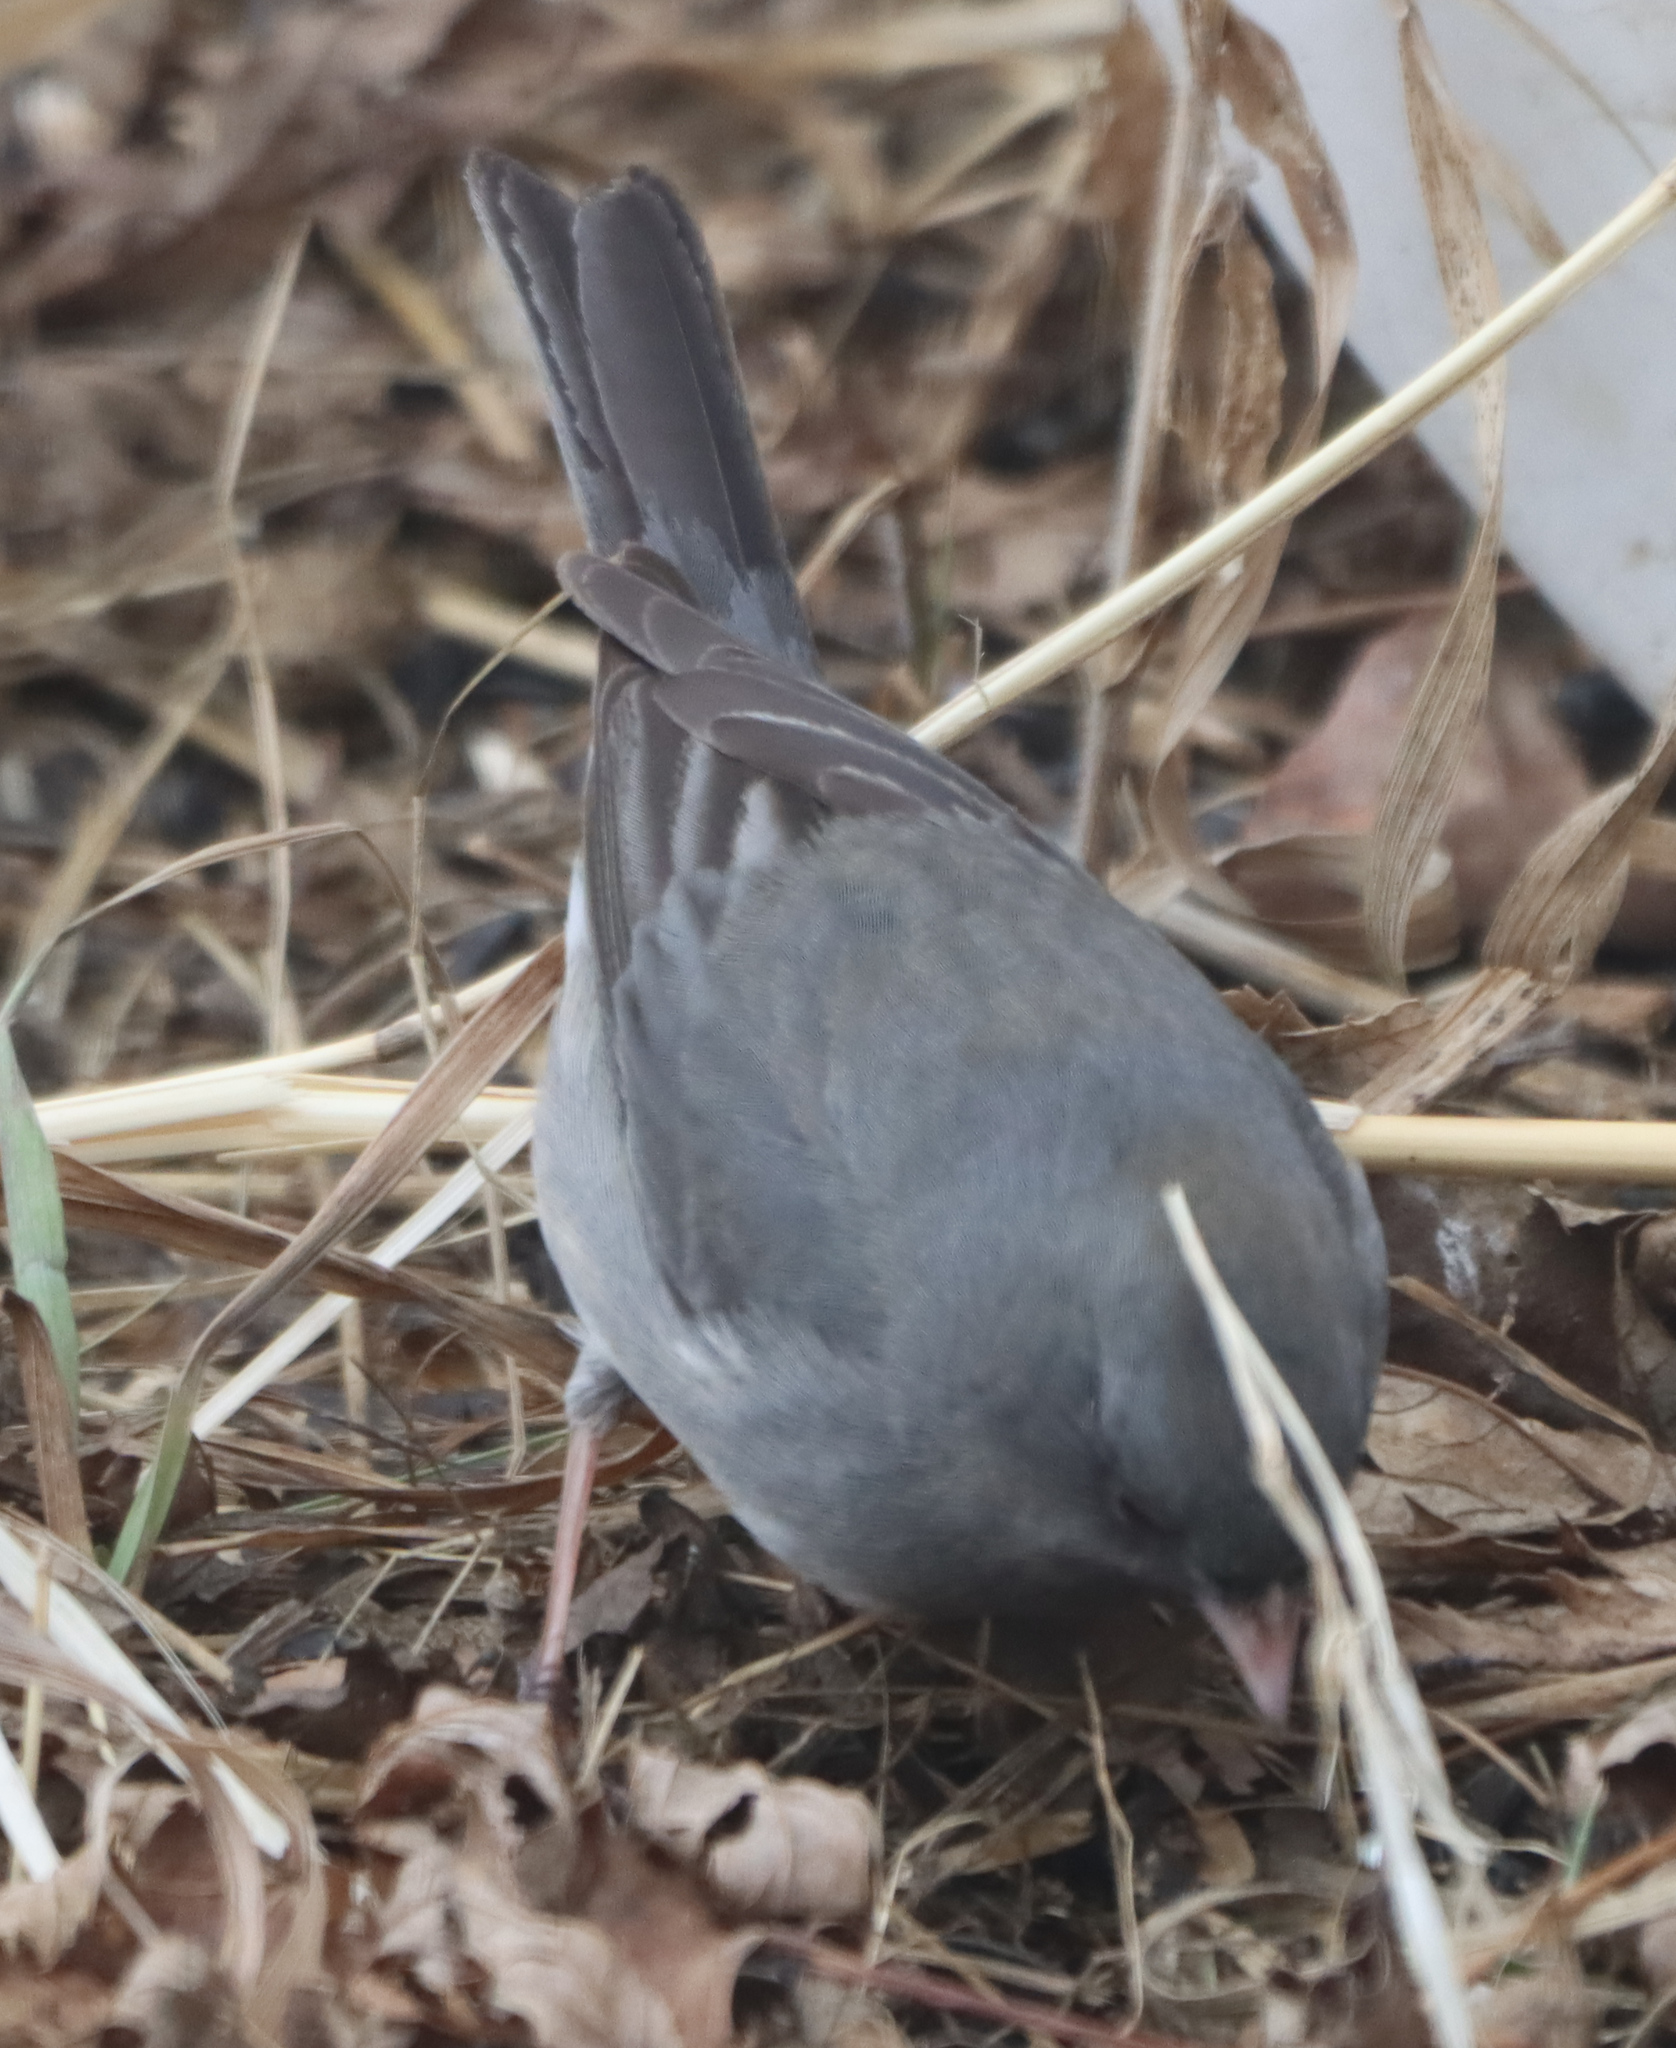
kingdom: Animalia
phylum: Chordata
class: Aves
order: Passeriformes
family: Passerellidae
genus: Junco
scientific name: Junco hyemalis
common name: Dark-eyed junco
